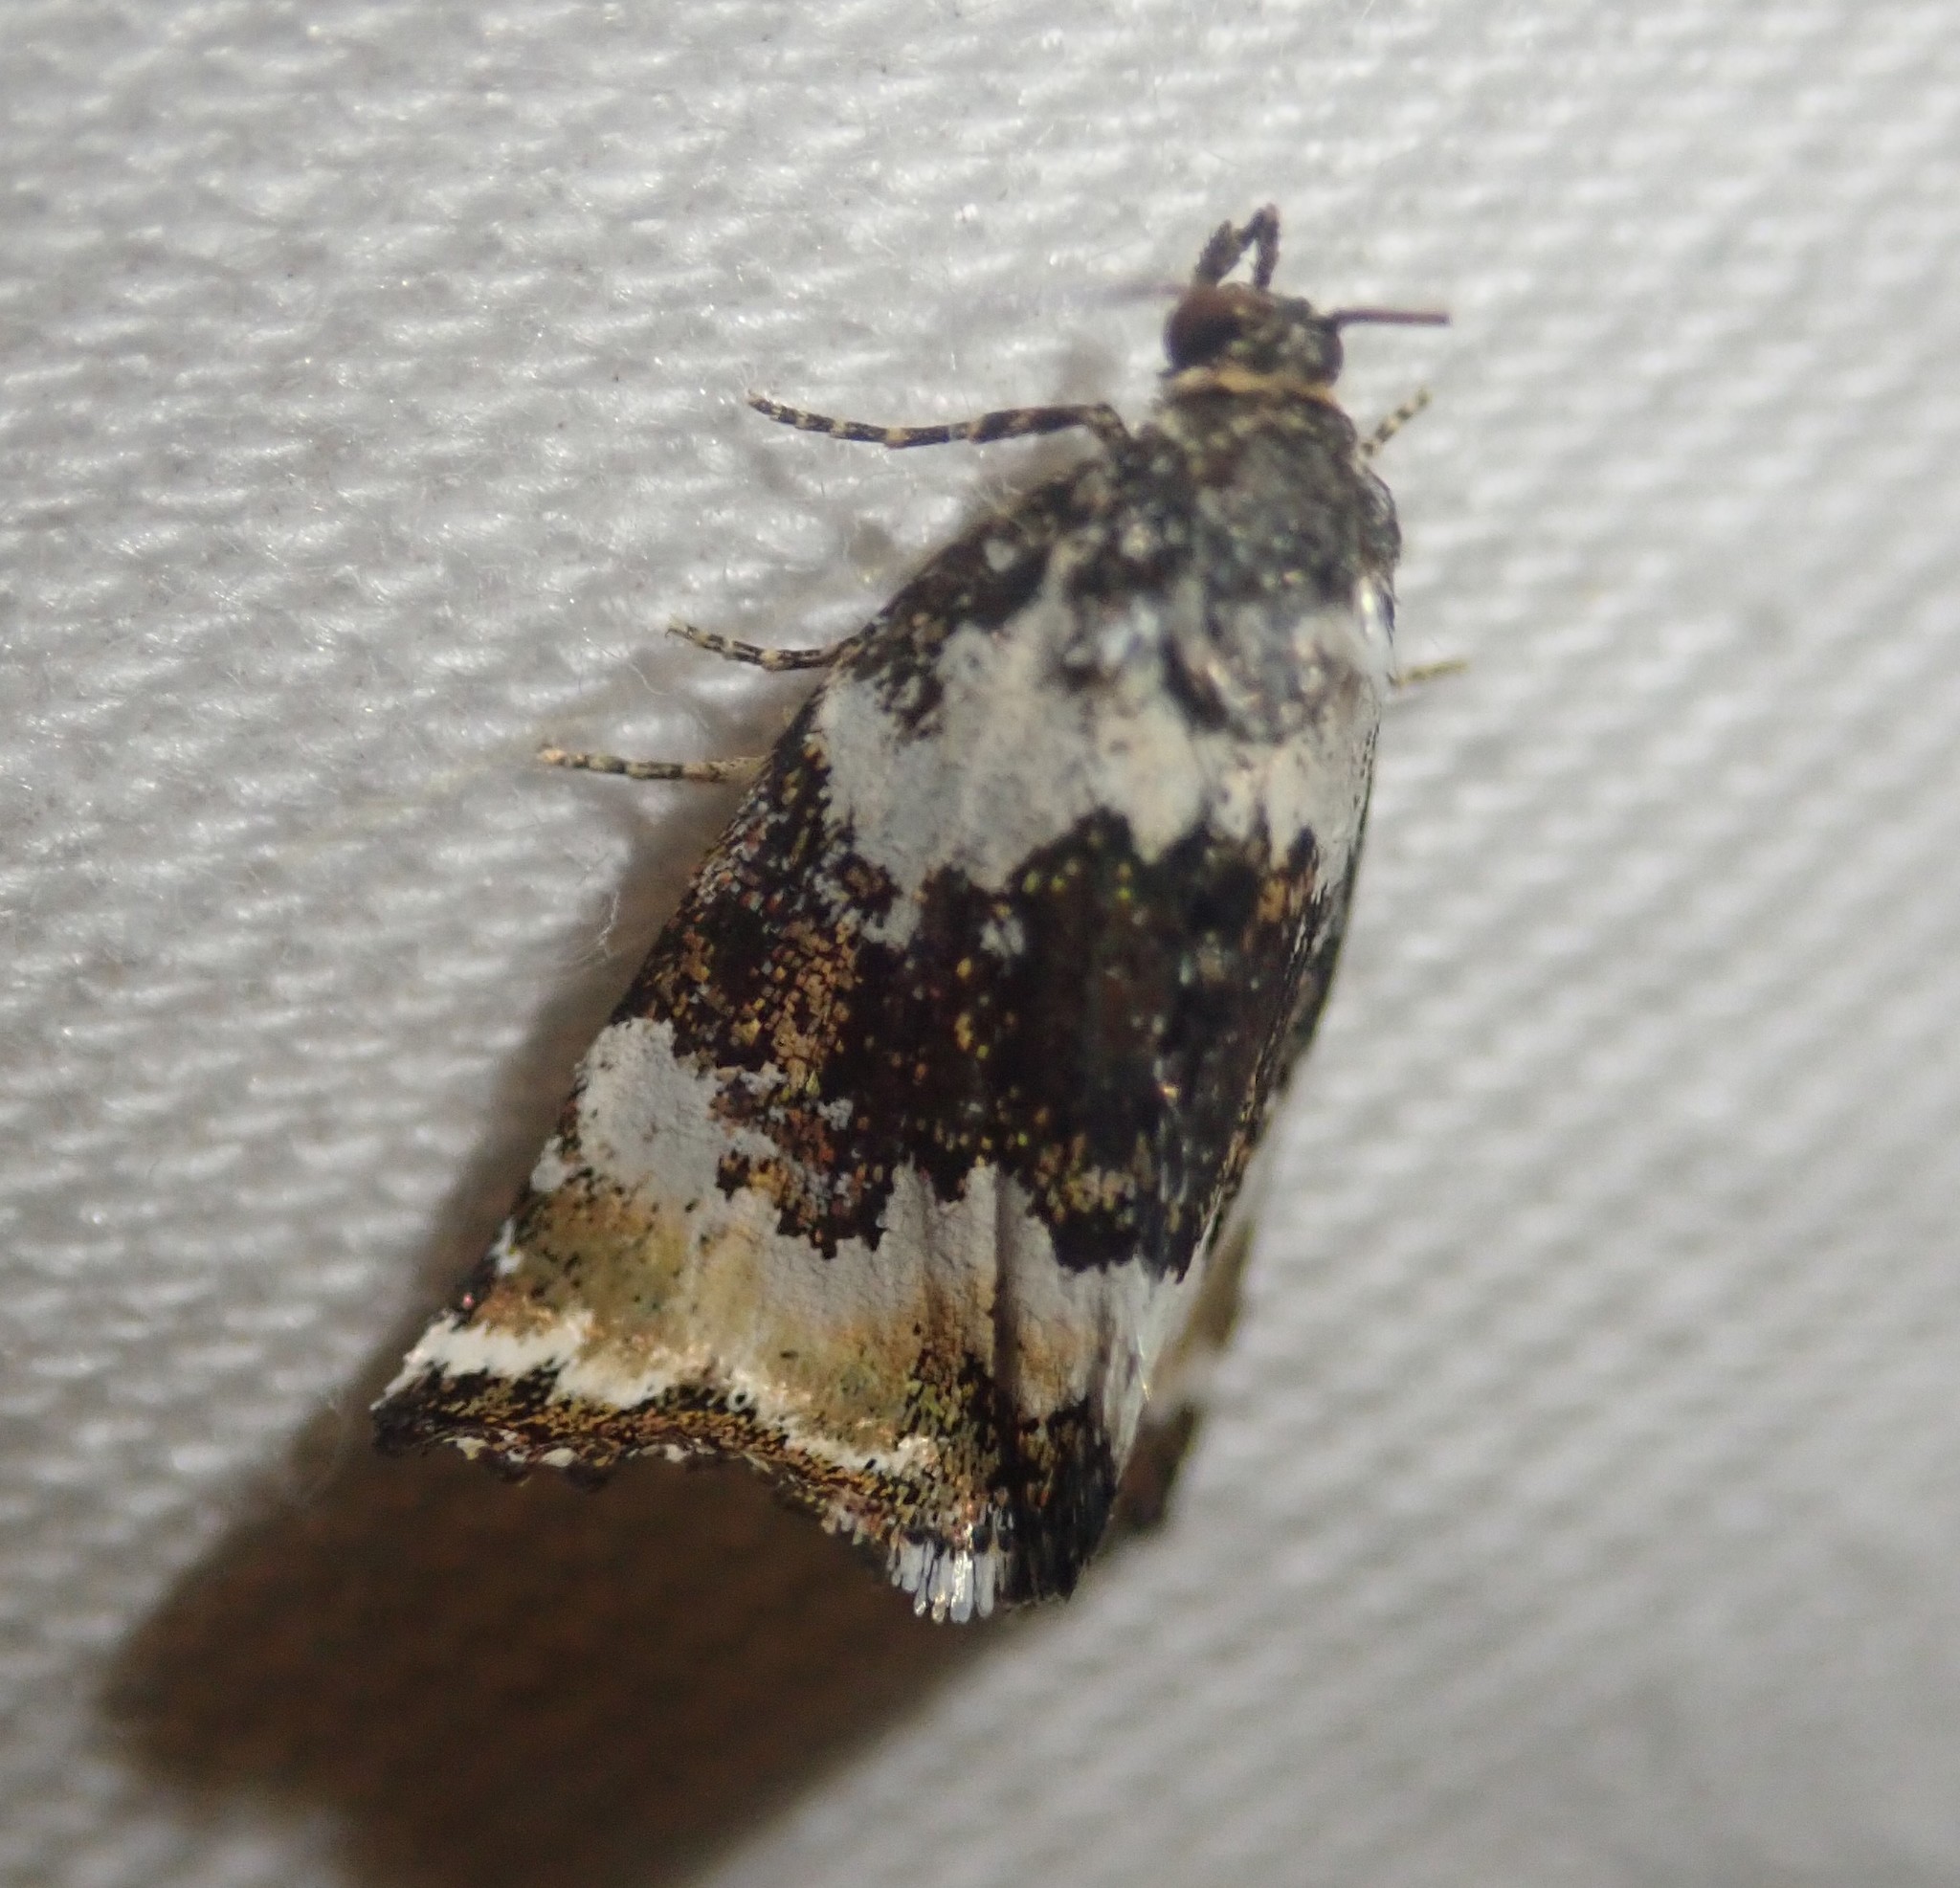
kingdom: Animalia
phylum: Arthropoda
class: Insecta
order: Lepidoptera
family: Noctuidae
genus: Deltote
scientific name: Deltote deceptoria
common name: Pretty marbled
